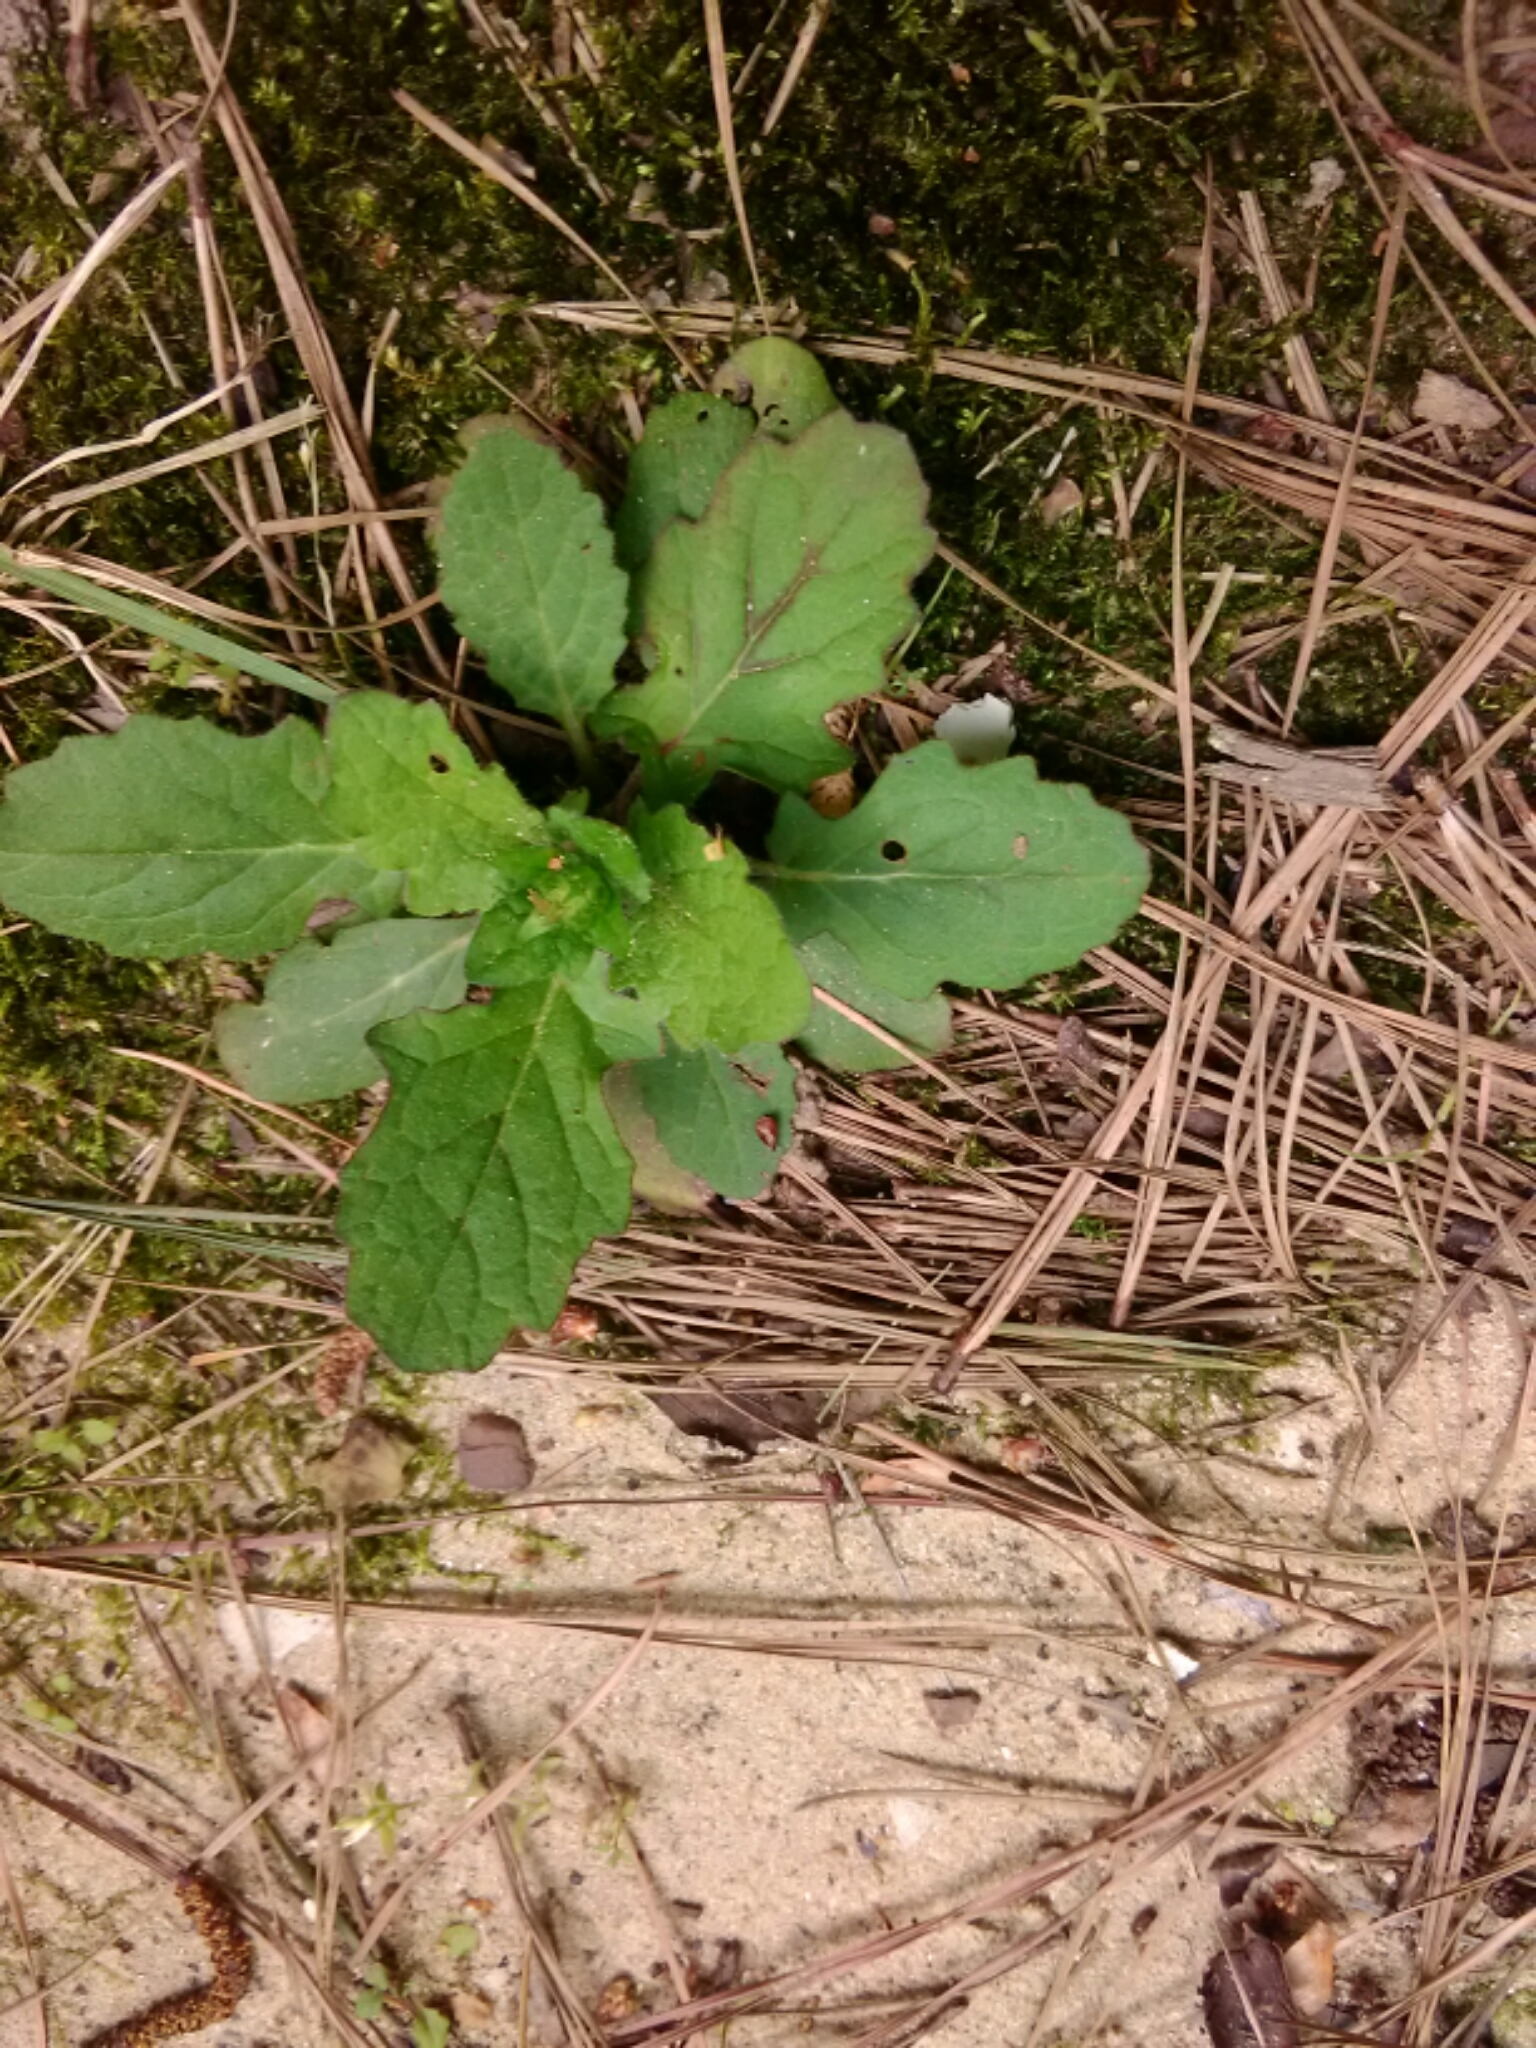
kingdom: Plantae
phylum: Tracheophyta
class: Magnoliopsida
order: Lamiales
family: Lamiaceae
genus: Salvia
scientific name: Salvia lyrata
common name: Cancerweed
